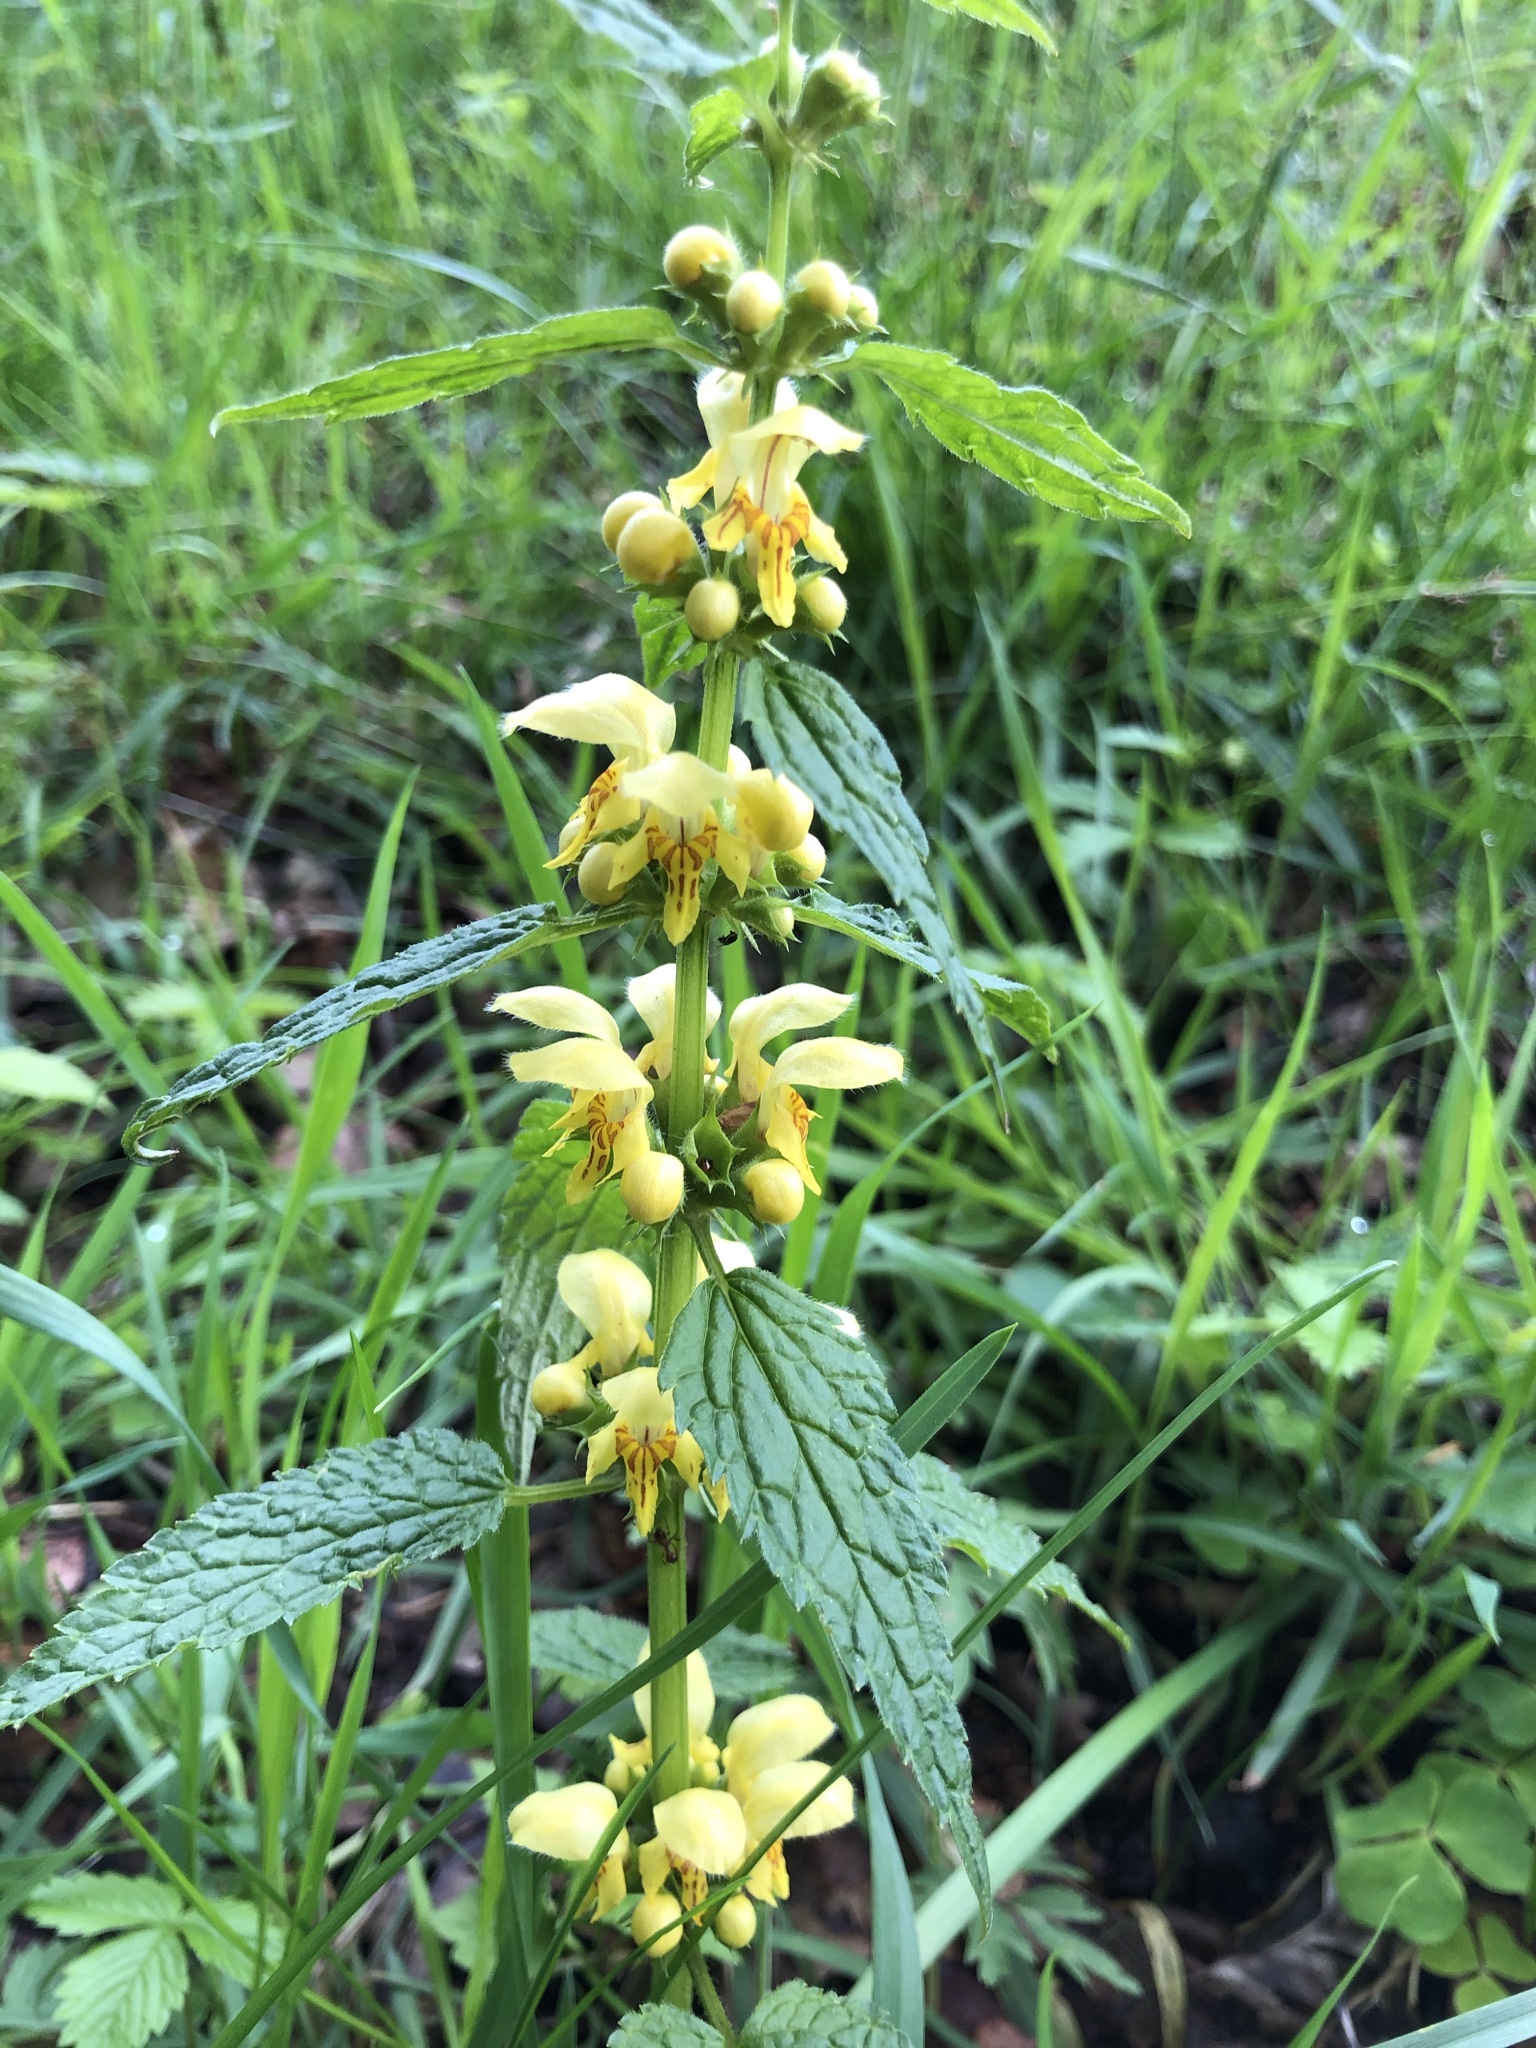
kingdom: Plantae
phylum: Tracheophyta
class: Magnoliopsida
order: Lamiales
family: Lamiaceae
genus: Lamium
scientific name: Lamium galeobdolon
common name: Yellow archangel
